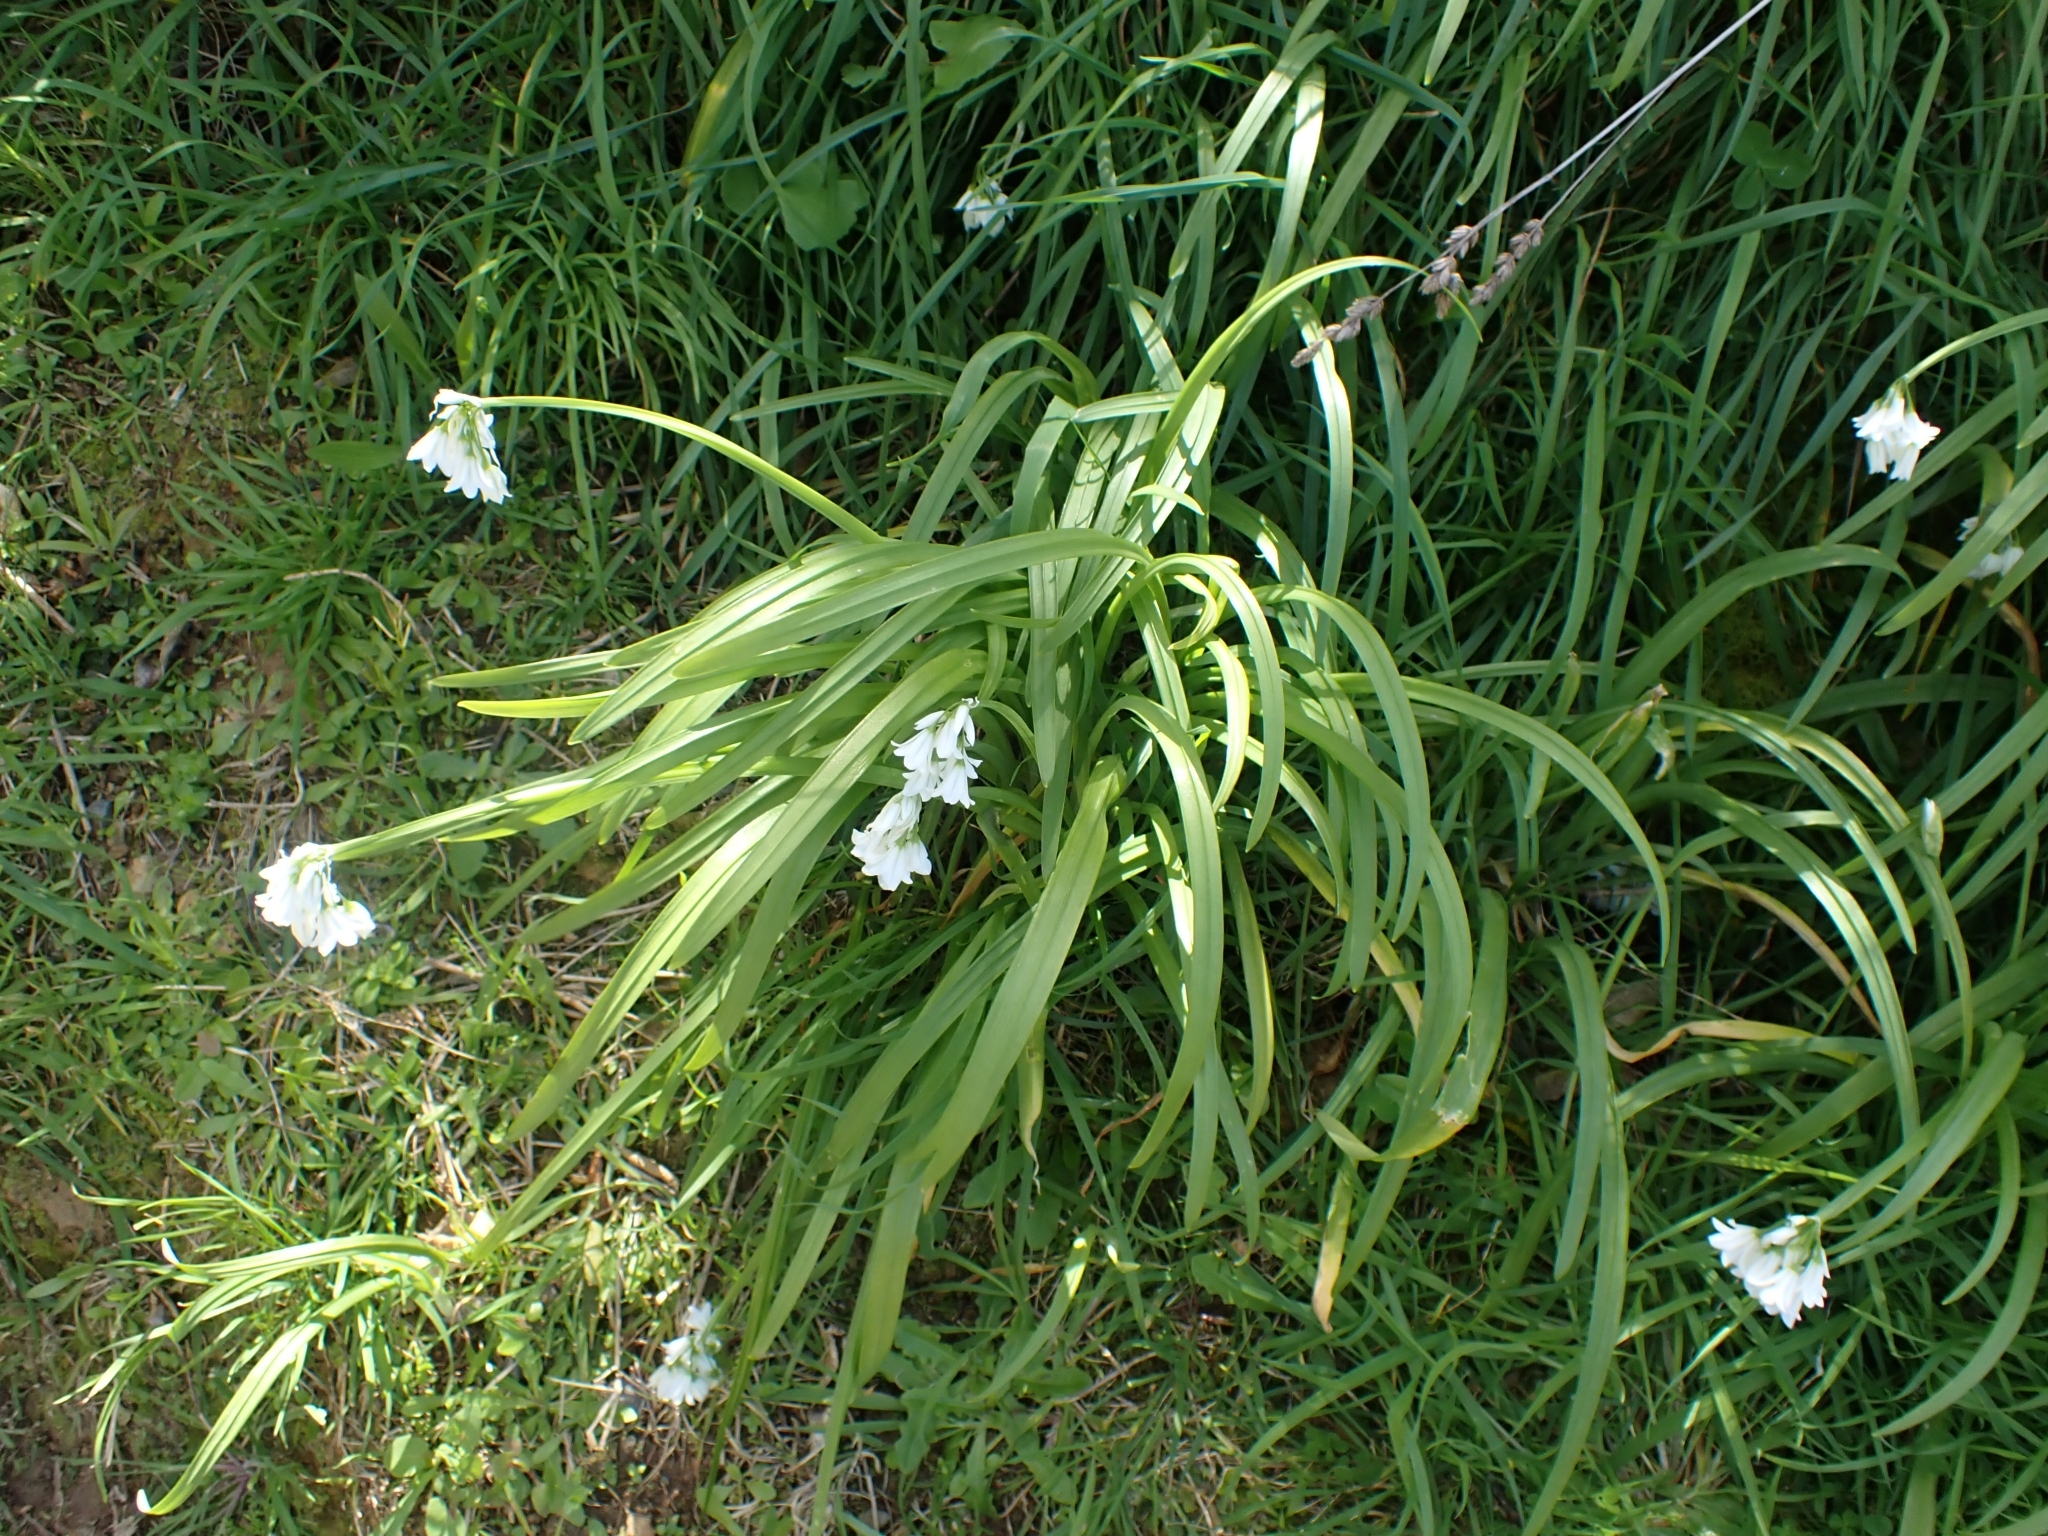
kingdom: Plantae
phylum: Tracheophyta
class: Liliopsida
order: Asparagales
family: Amaryllidaceae
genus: Allium
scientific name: Allium triquetrum
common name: Three-cornered garlic
